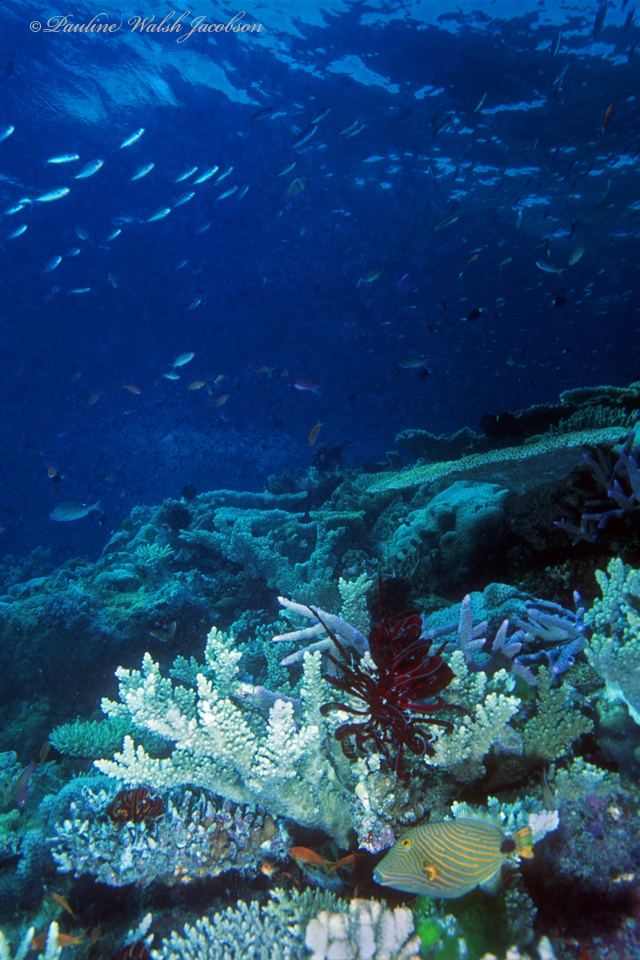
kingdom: Animalia
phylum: Chordata
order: Tetraodontiformes
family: Balistidae
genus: Balistapus
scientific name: Balistapus undulatus
